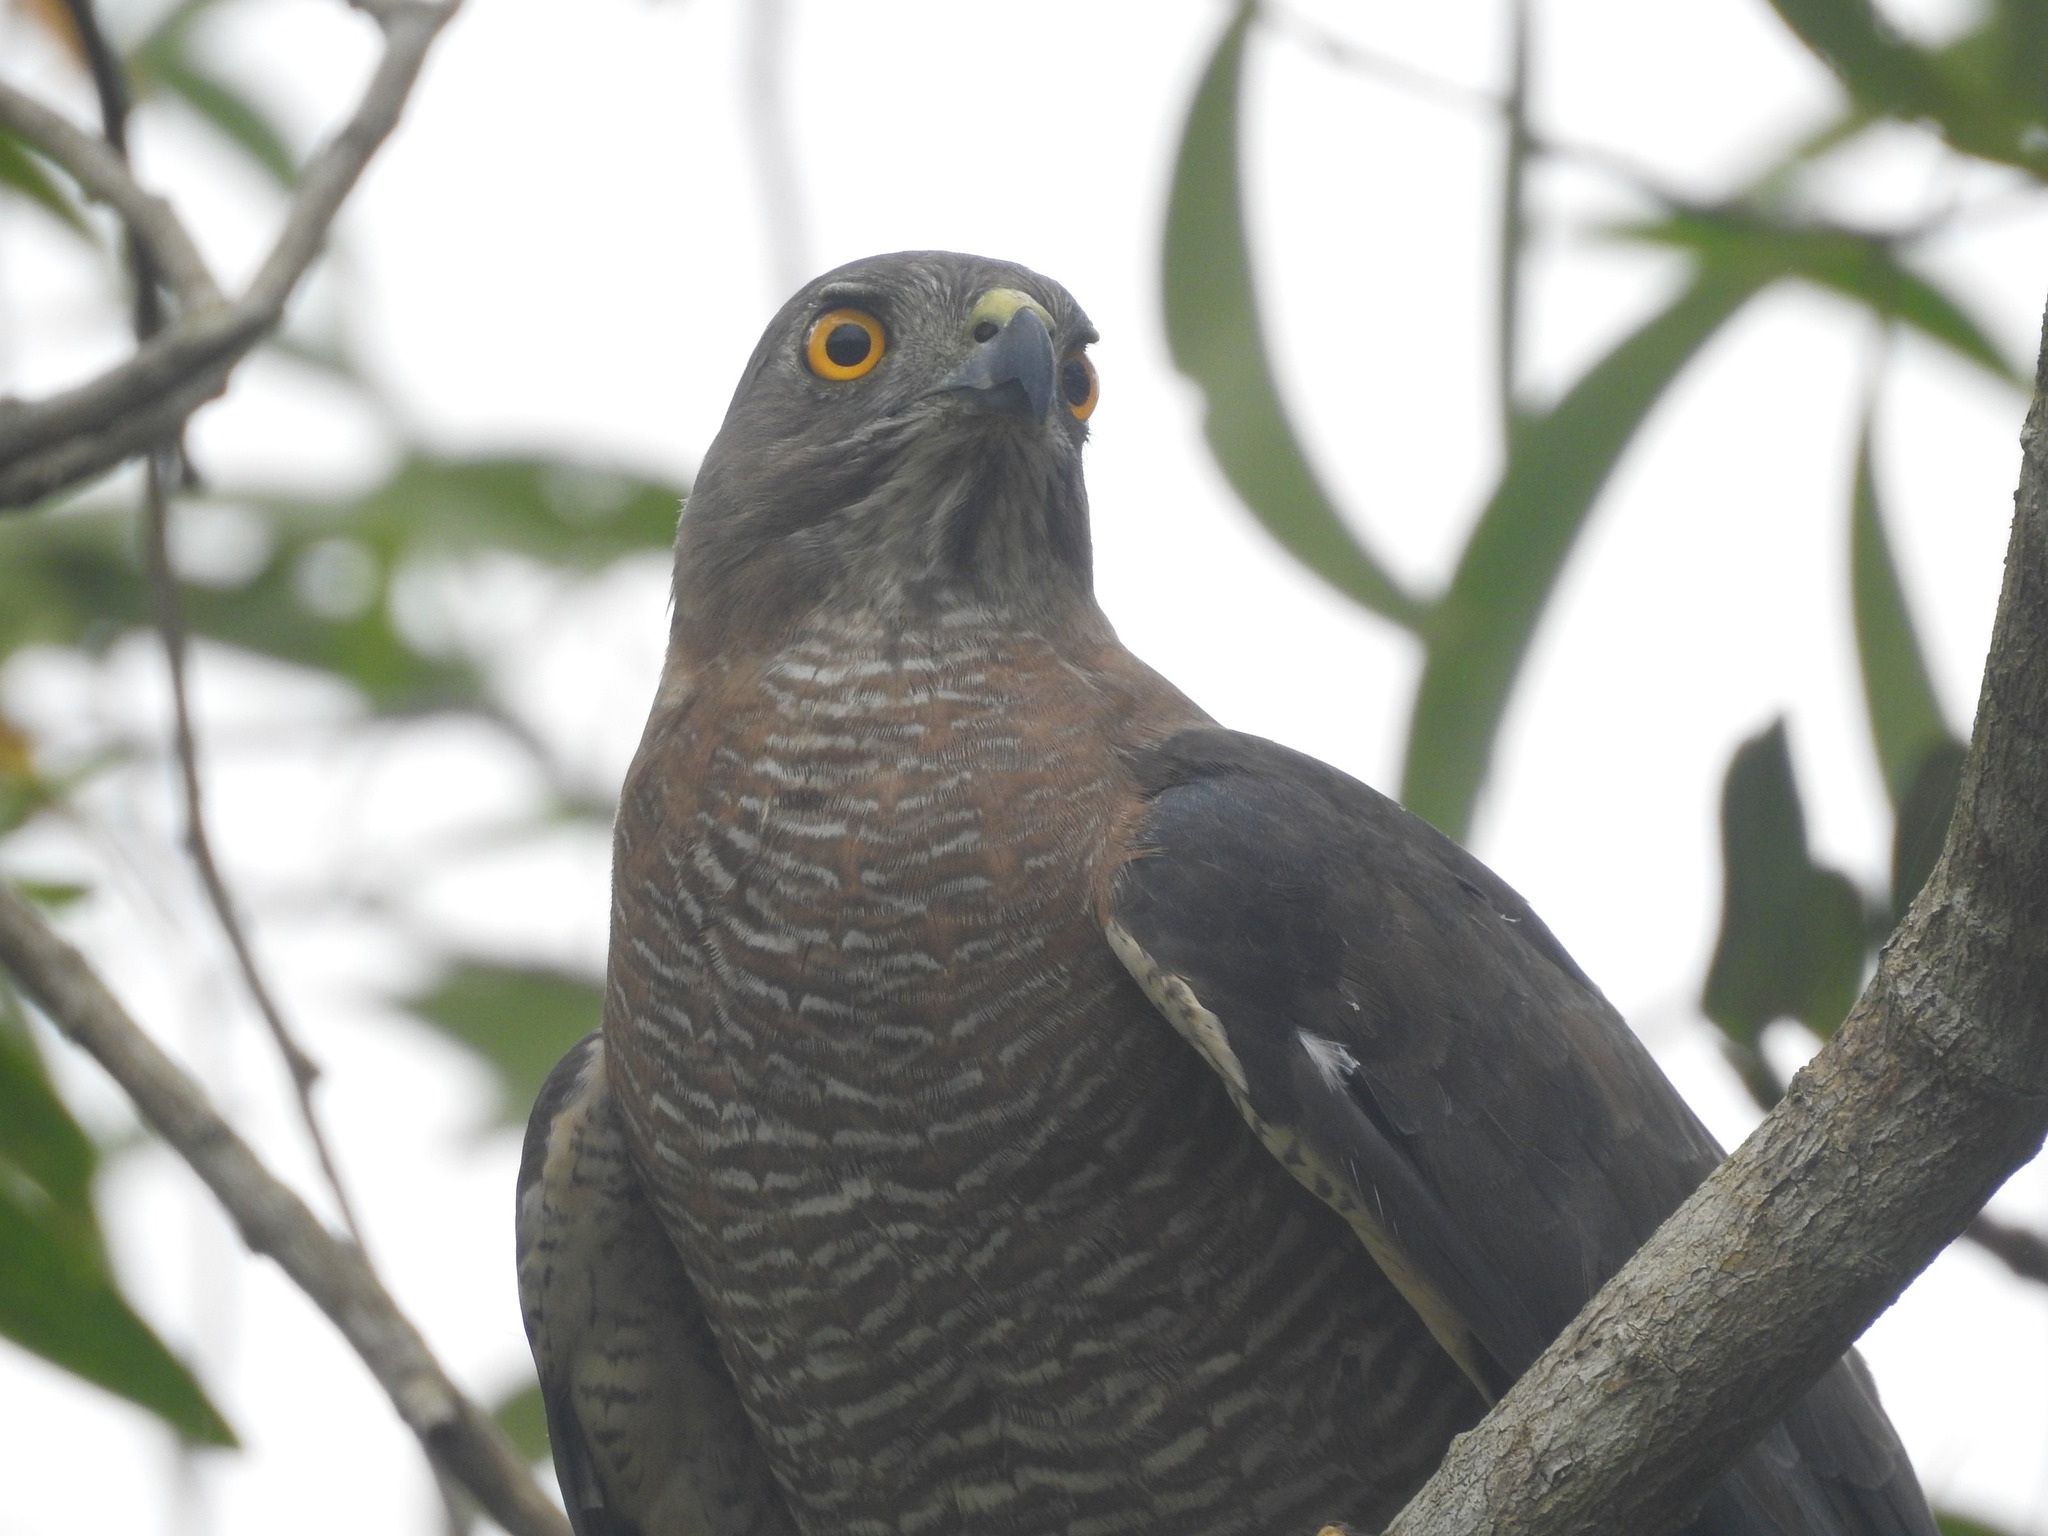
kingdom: Animalia
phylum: Chordata
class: Aves
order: Accipitriformes
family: Accipitridae
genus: Accipiter
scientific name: Accipiter badius
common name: Shikra
